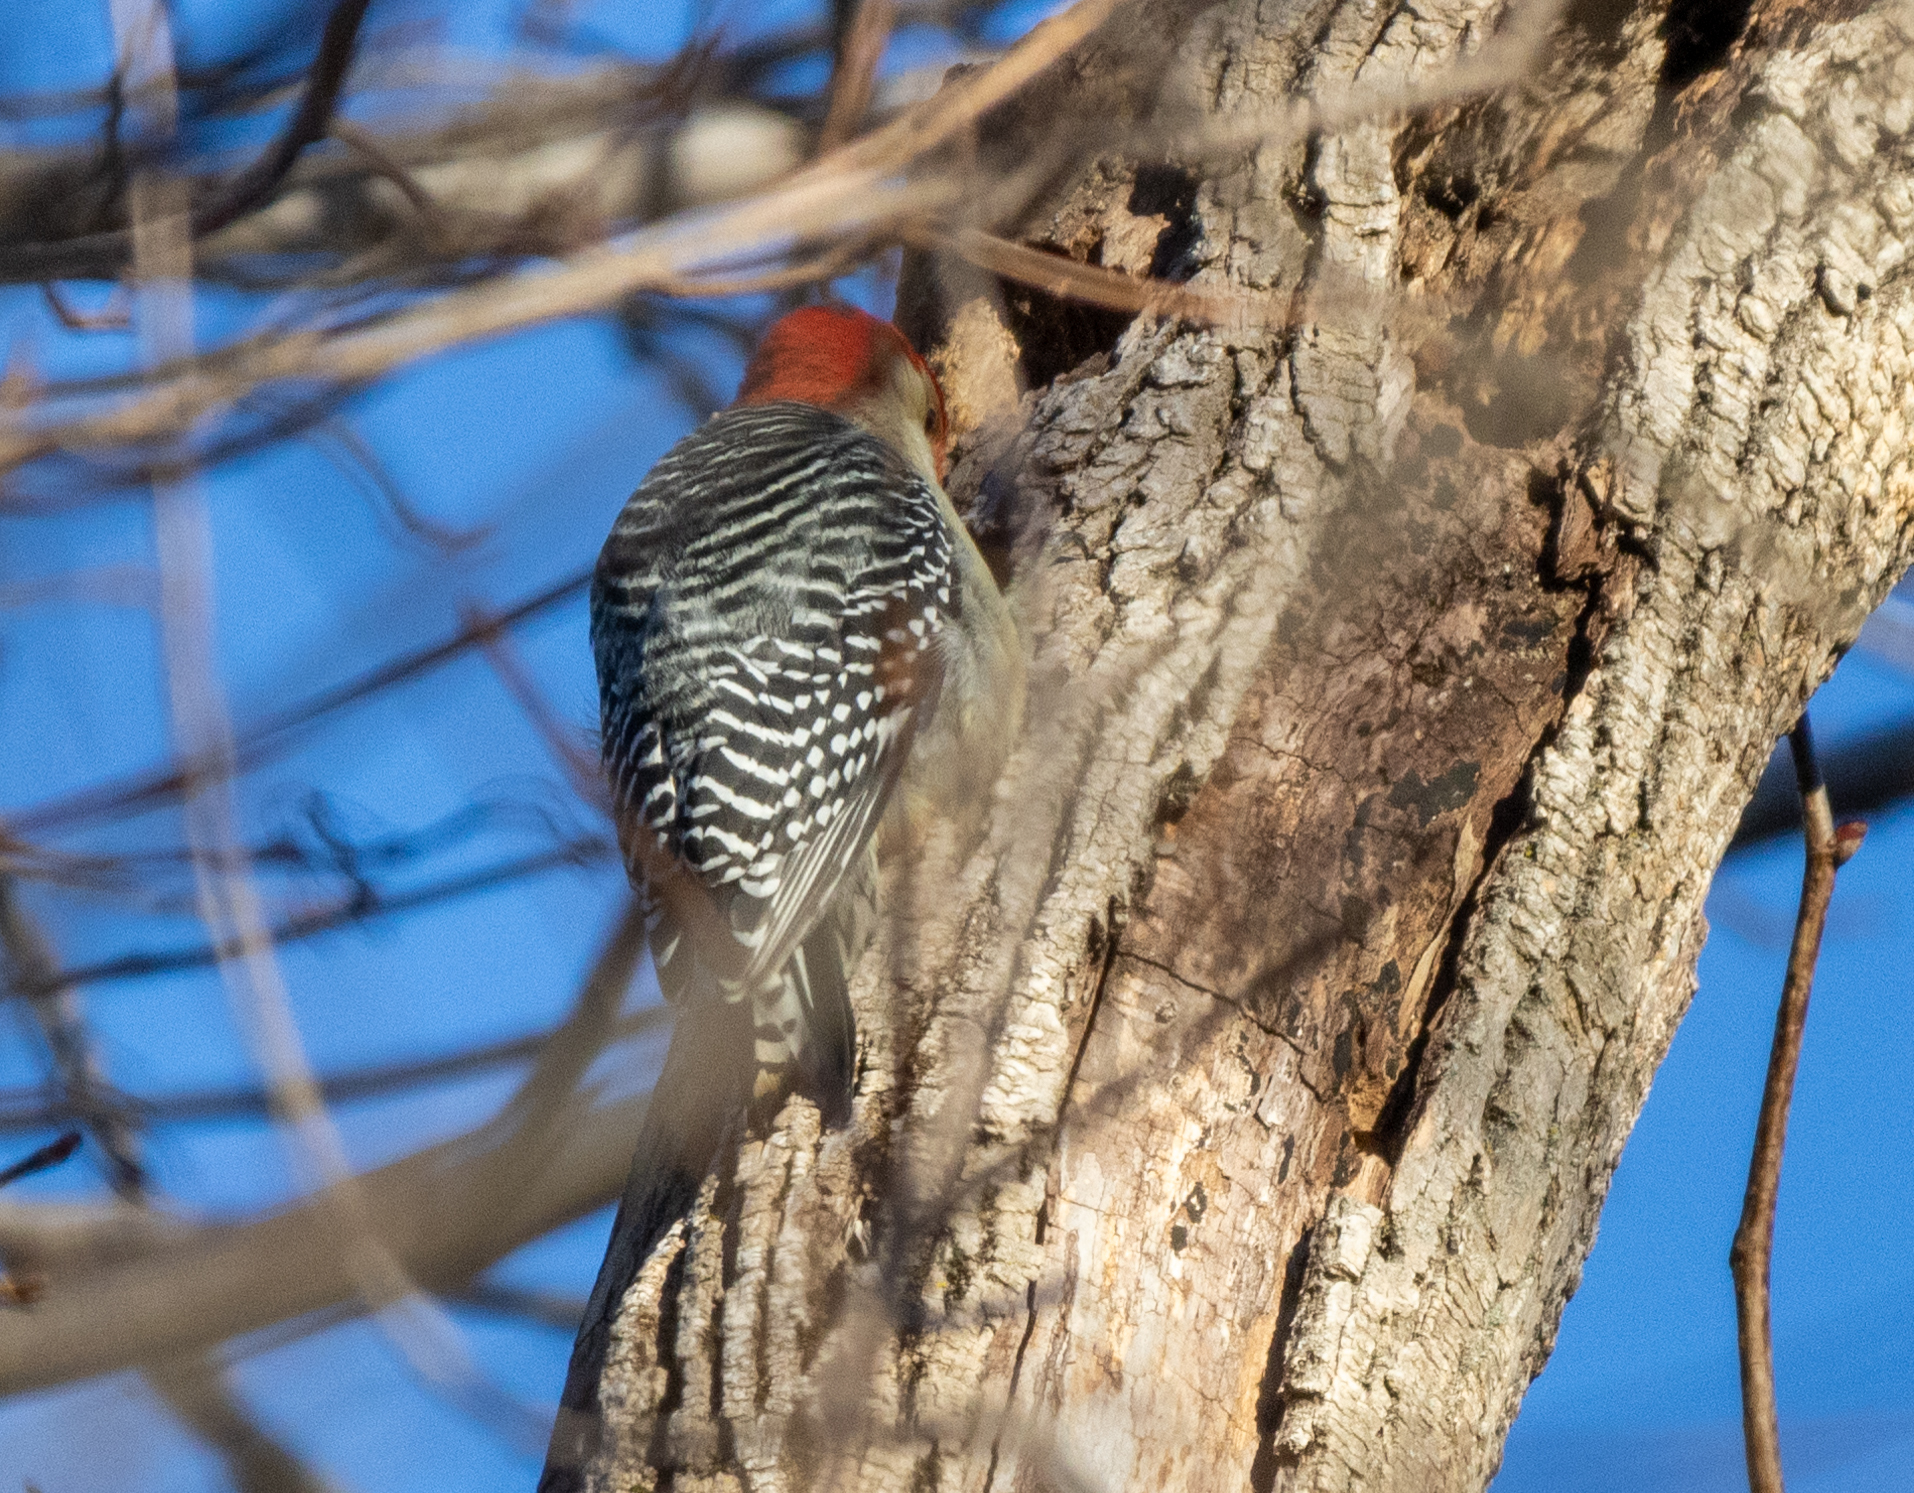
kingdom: Animalia
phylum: Chordata
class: Aves
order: Piciformes
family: Picidae
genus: Melanerpes
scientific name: Melanerpes carolinus
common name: Red-bellied woodpecker
